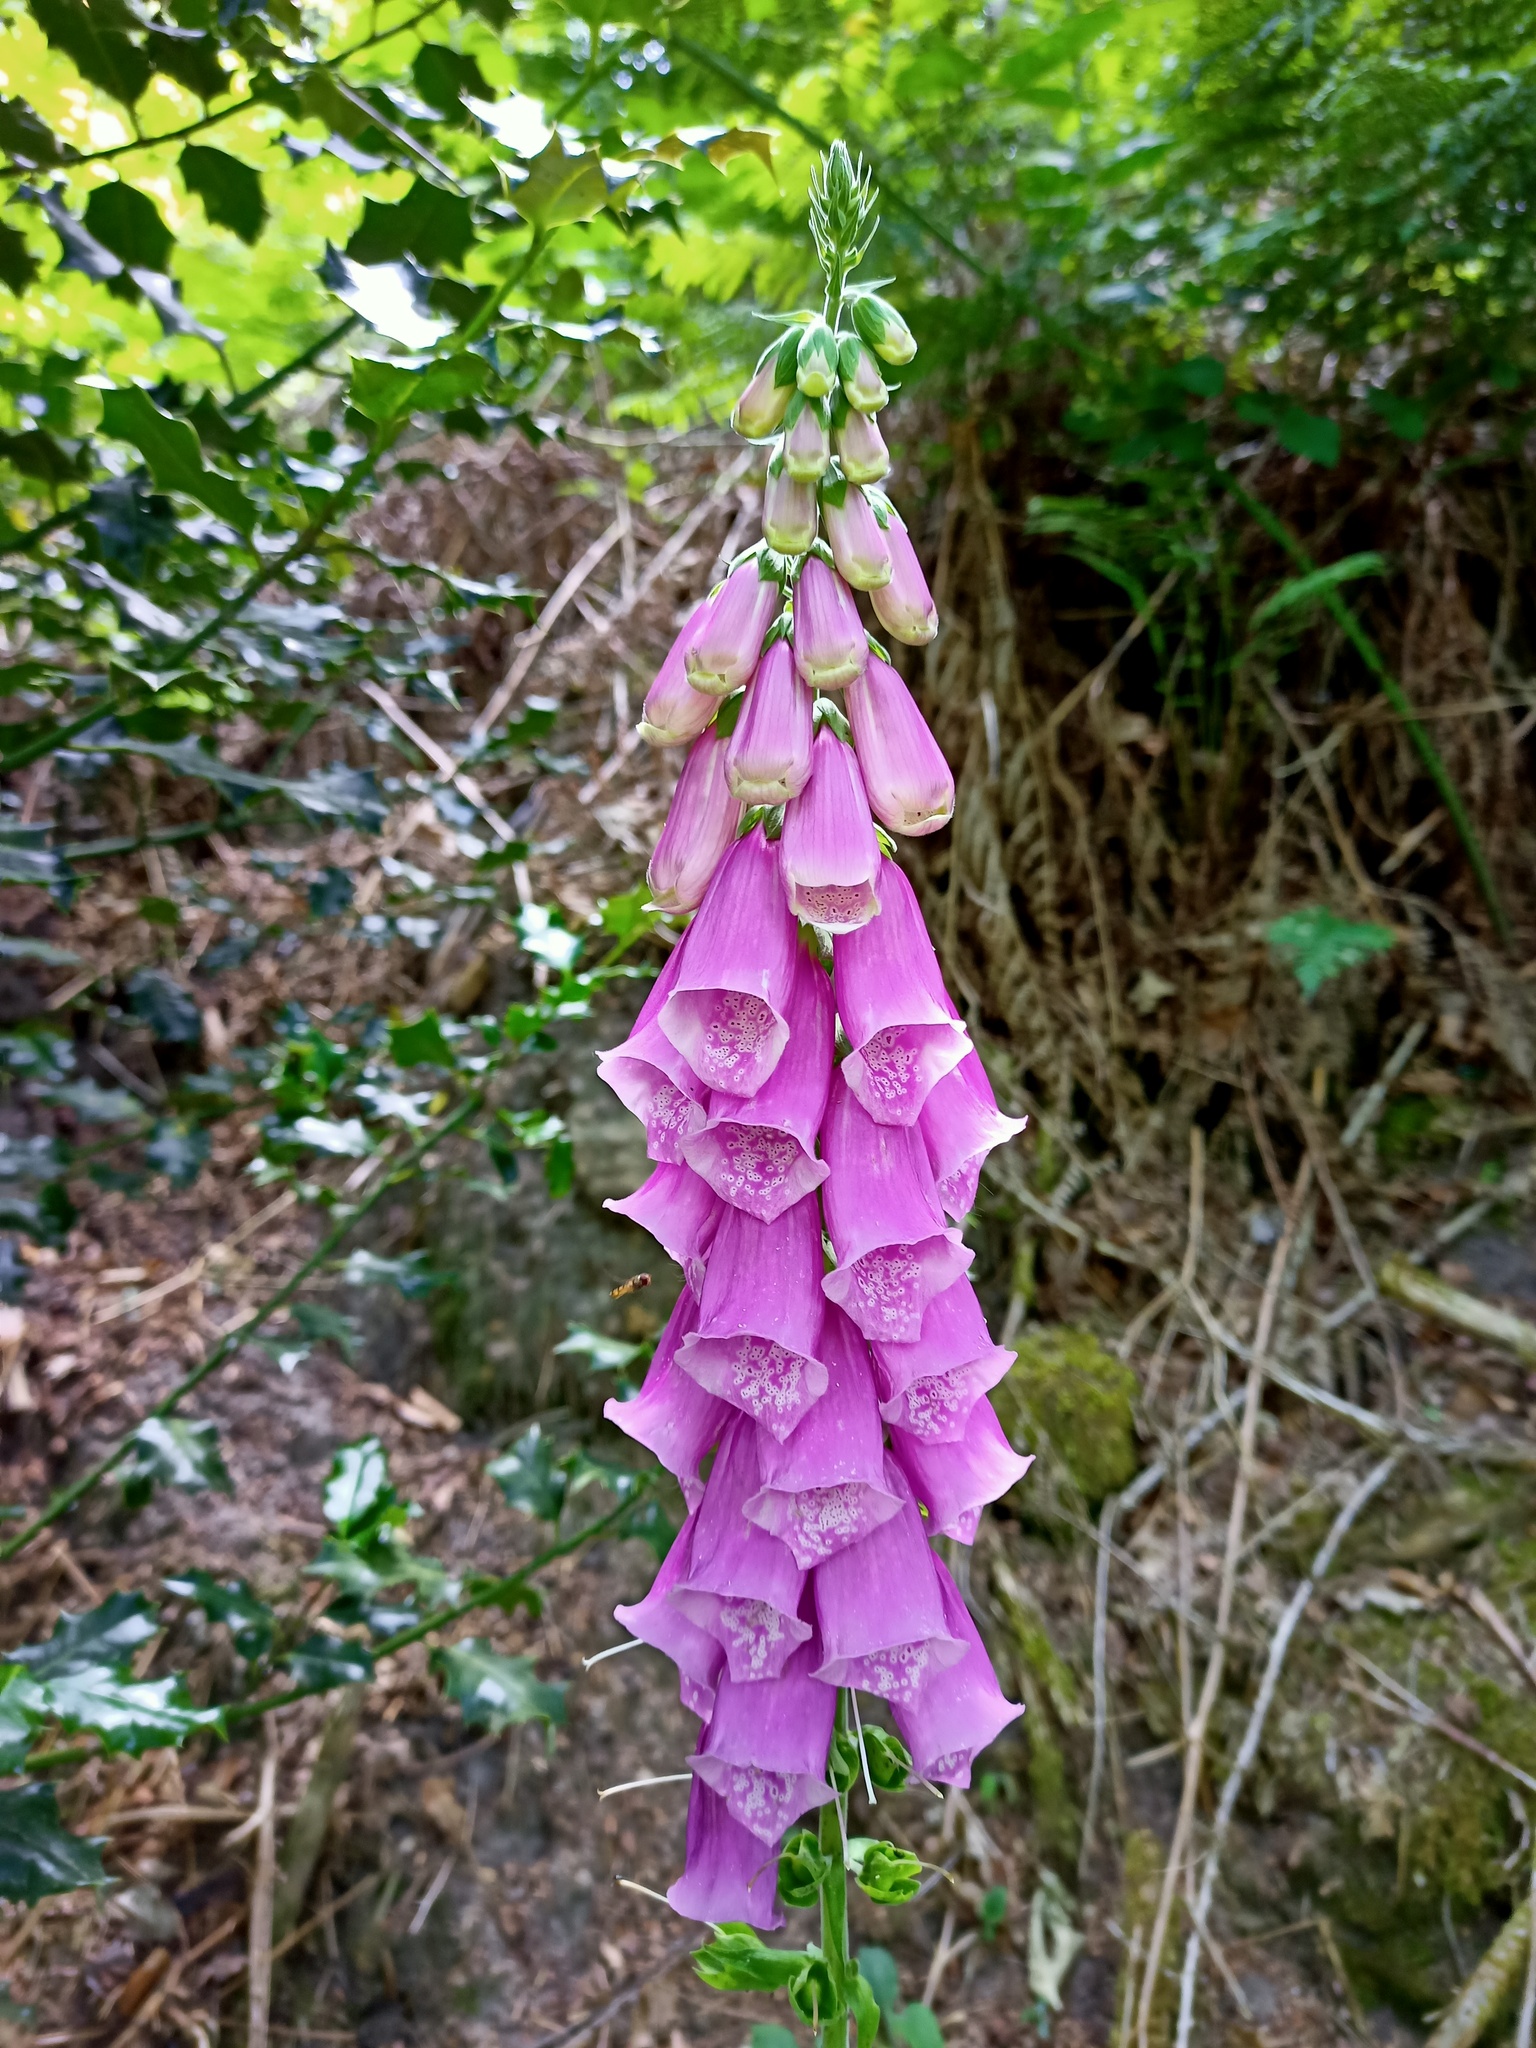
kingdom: Plantae
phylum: Tracheophyta
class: Magnoliopsida
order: Lamiales
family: Plantaginaceae
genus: Digitalis
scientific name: Digitalis purpurea
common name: Foxglove
